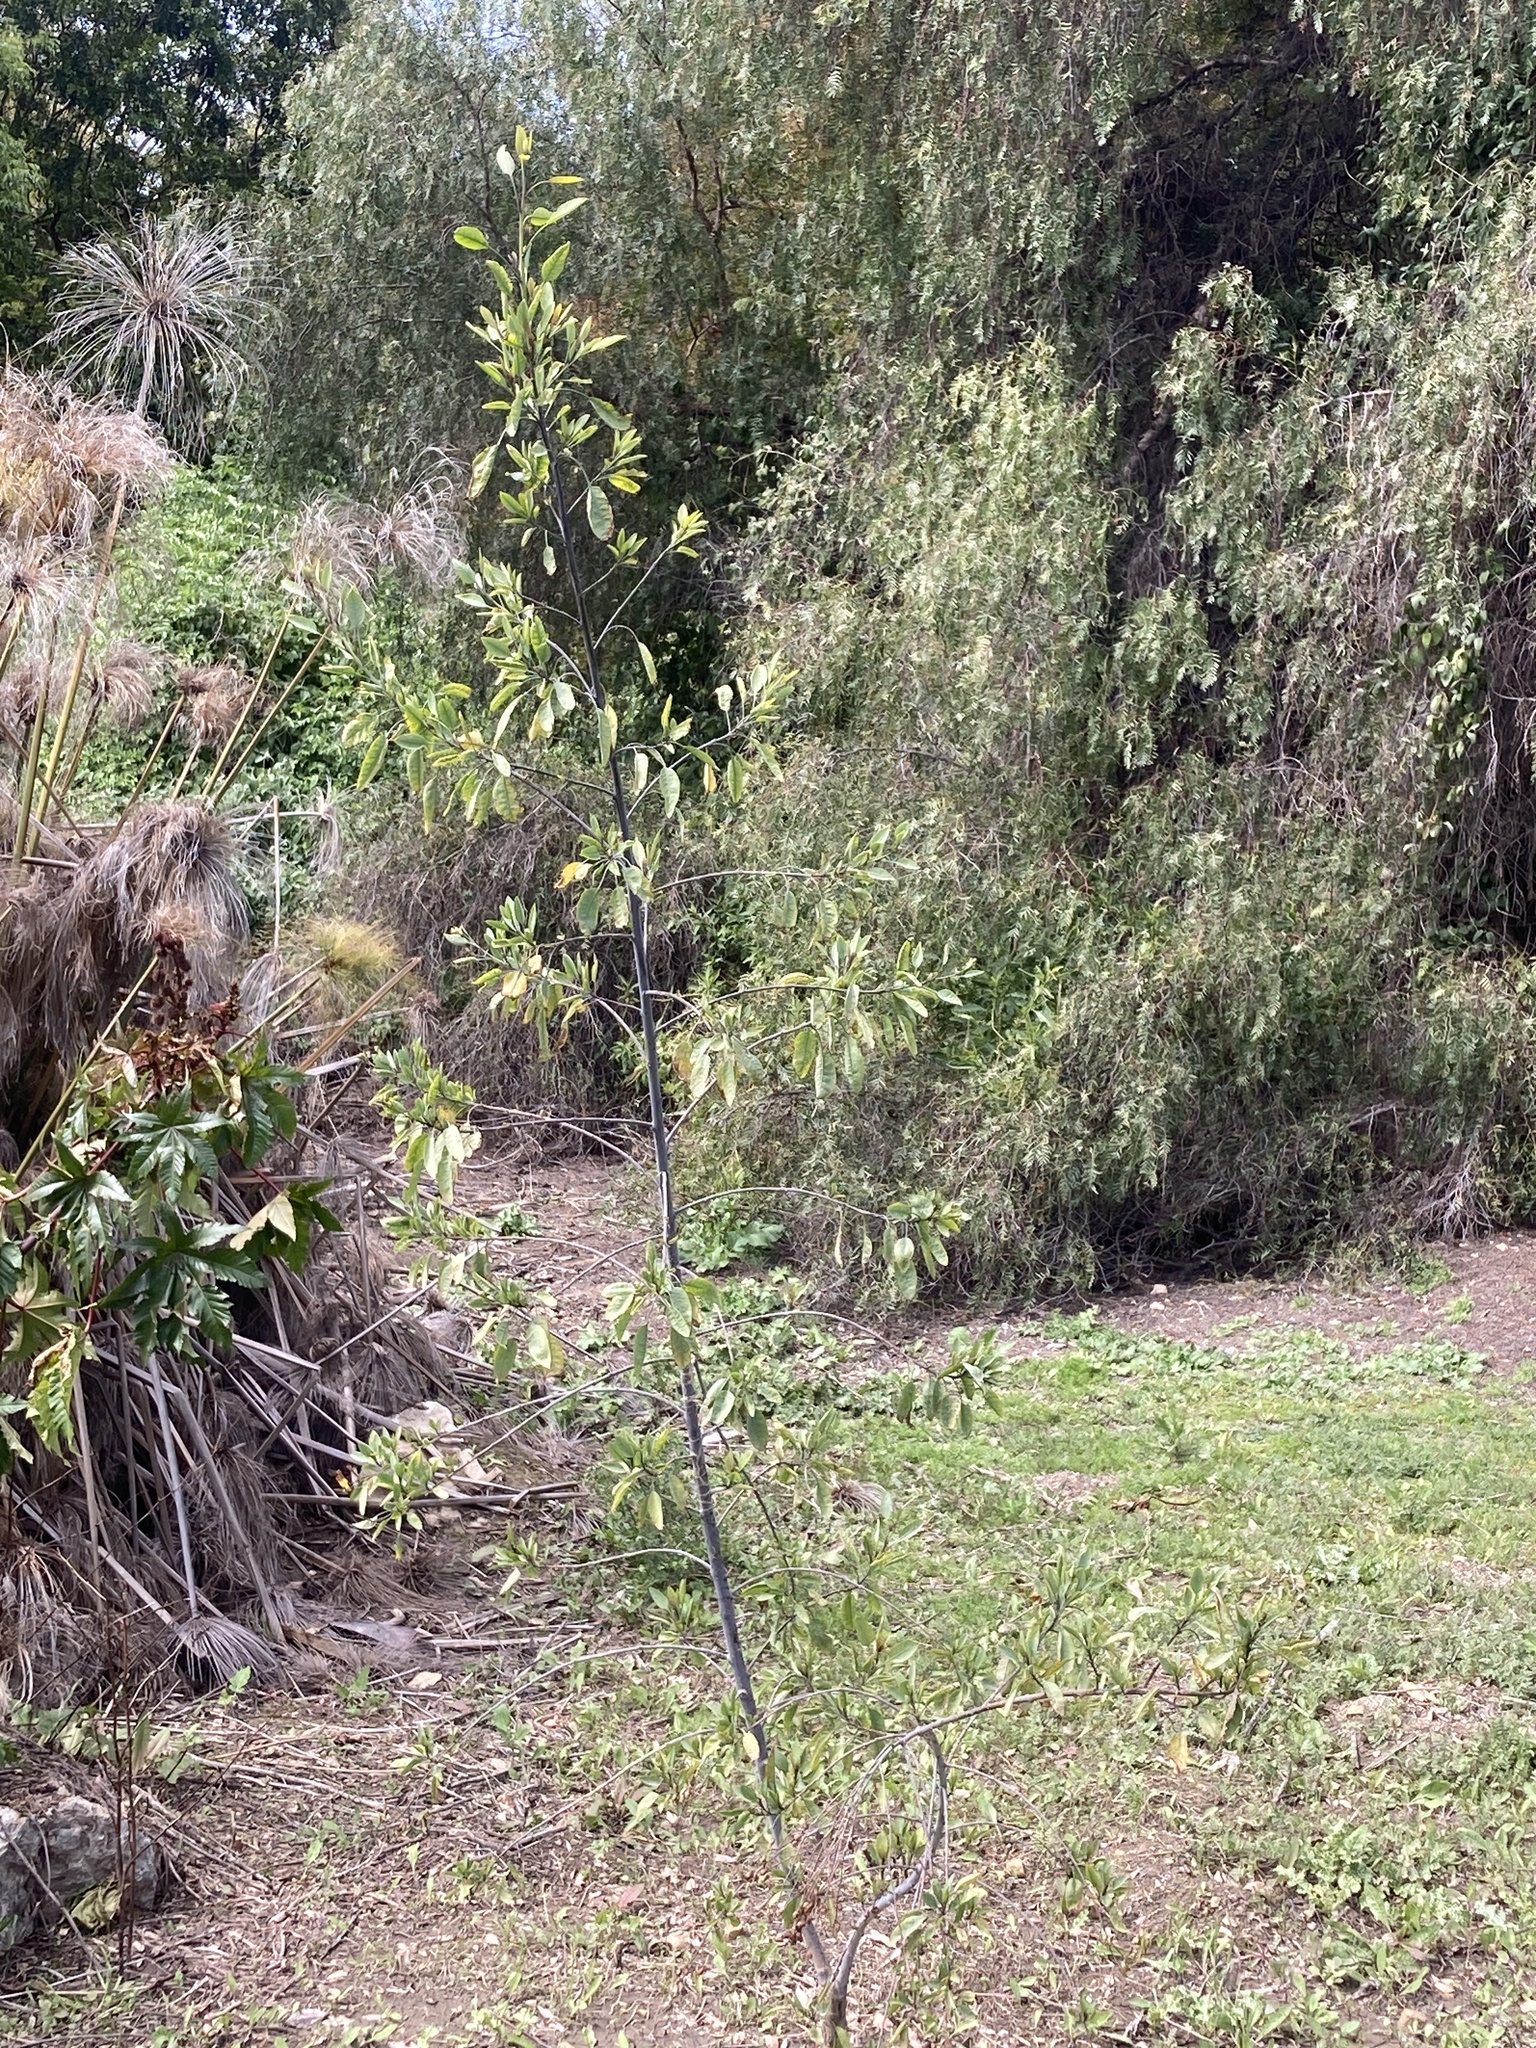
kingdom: Plantae
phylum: Tracheophyta
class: Magnoliopsida
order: Solanales
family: Solanaceae
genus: Nicotiana
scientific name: Nicotiana glauca
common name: Tree tobacco
